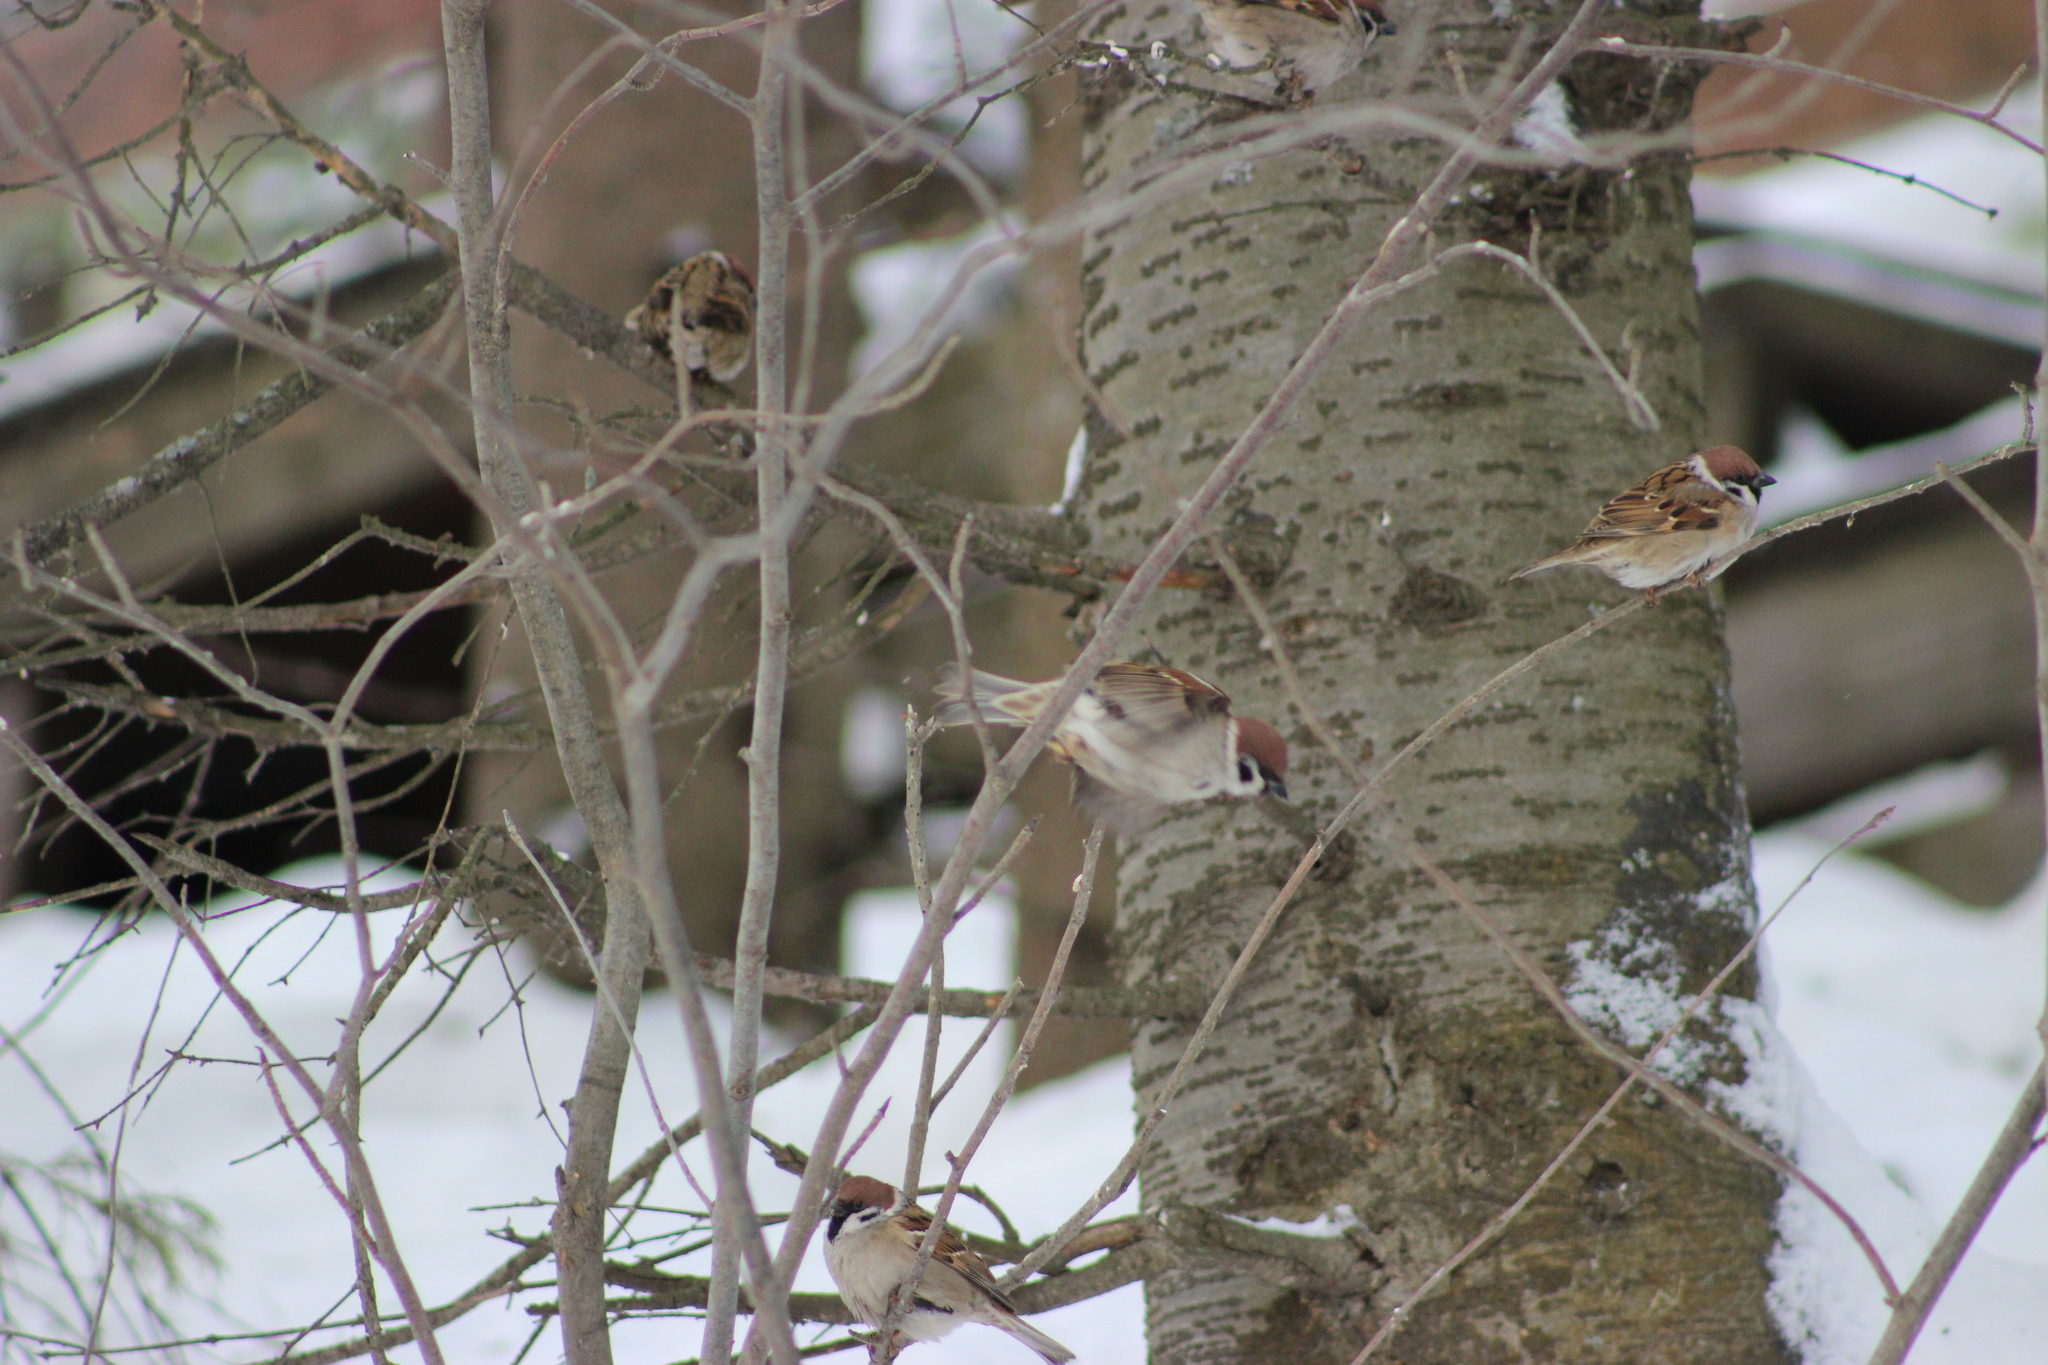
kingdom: Animalia
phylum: Chordata
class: Aves
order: Passeriformes
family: Passeridae
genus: Passer
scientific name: Passer montanus
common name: Eurasian tree sparrow
